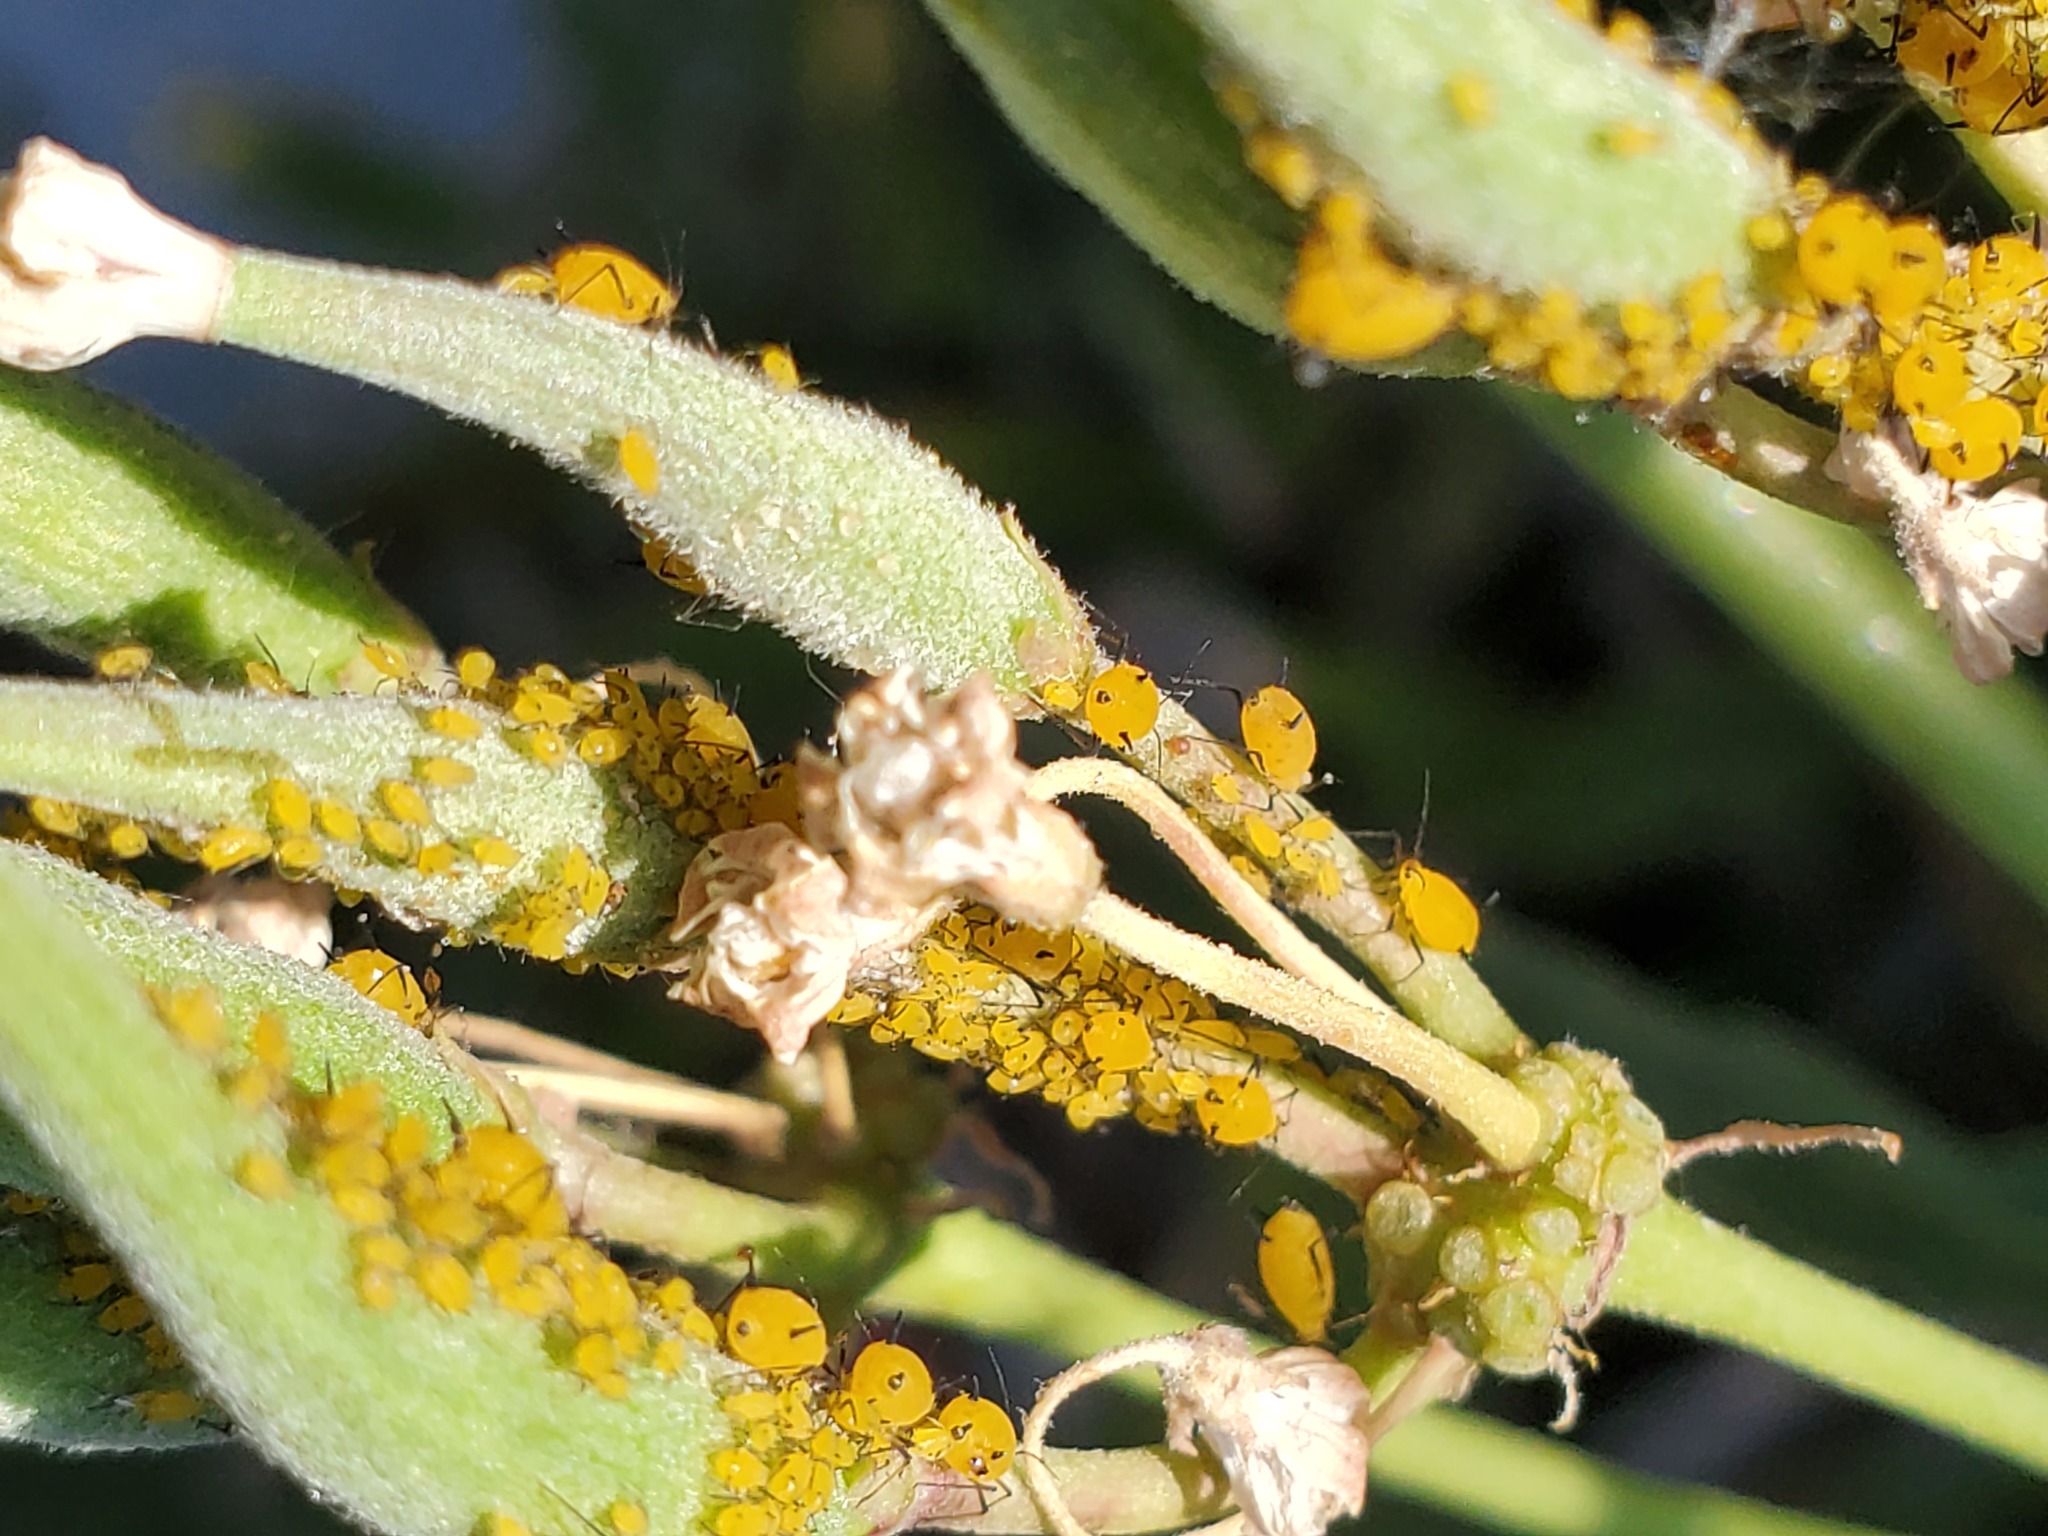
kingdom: Animalia
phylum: Arthropoda
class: Insecta
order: Hemiptera
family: Aphididae
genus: Aphis
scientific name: Aphis nerii
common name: Oleander aphid
